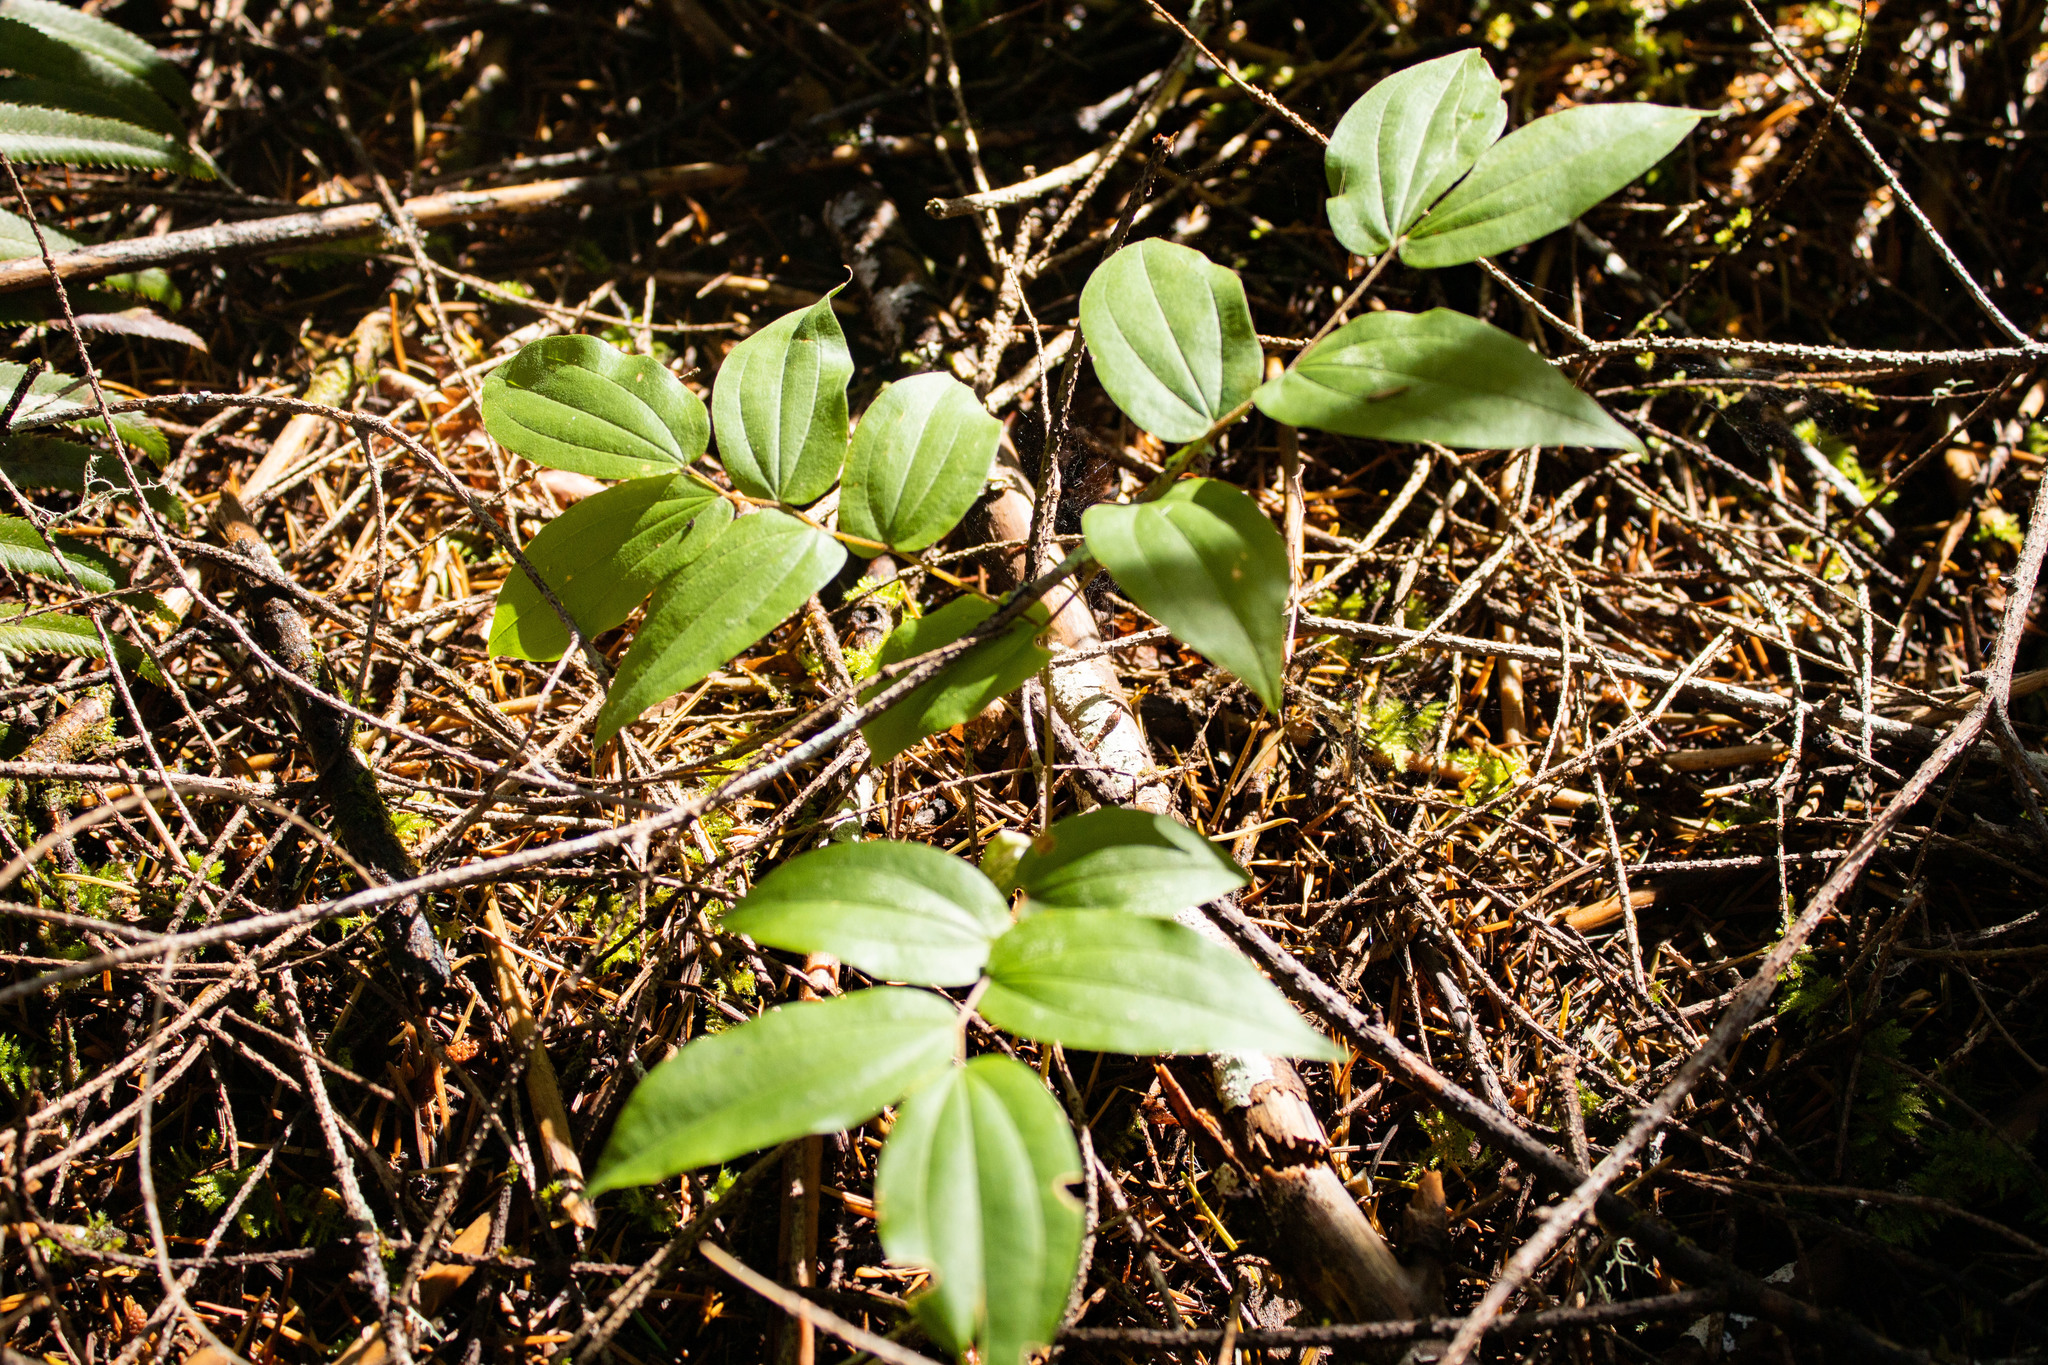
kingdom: Plantae
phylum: Tracheophyta
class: Liliopsida
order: Liliales
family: Liliaceae
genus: Prosartes
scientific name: Prosartes hookeri
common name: Fairy-bells
